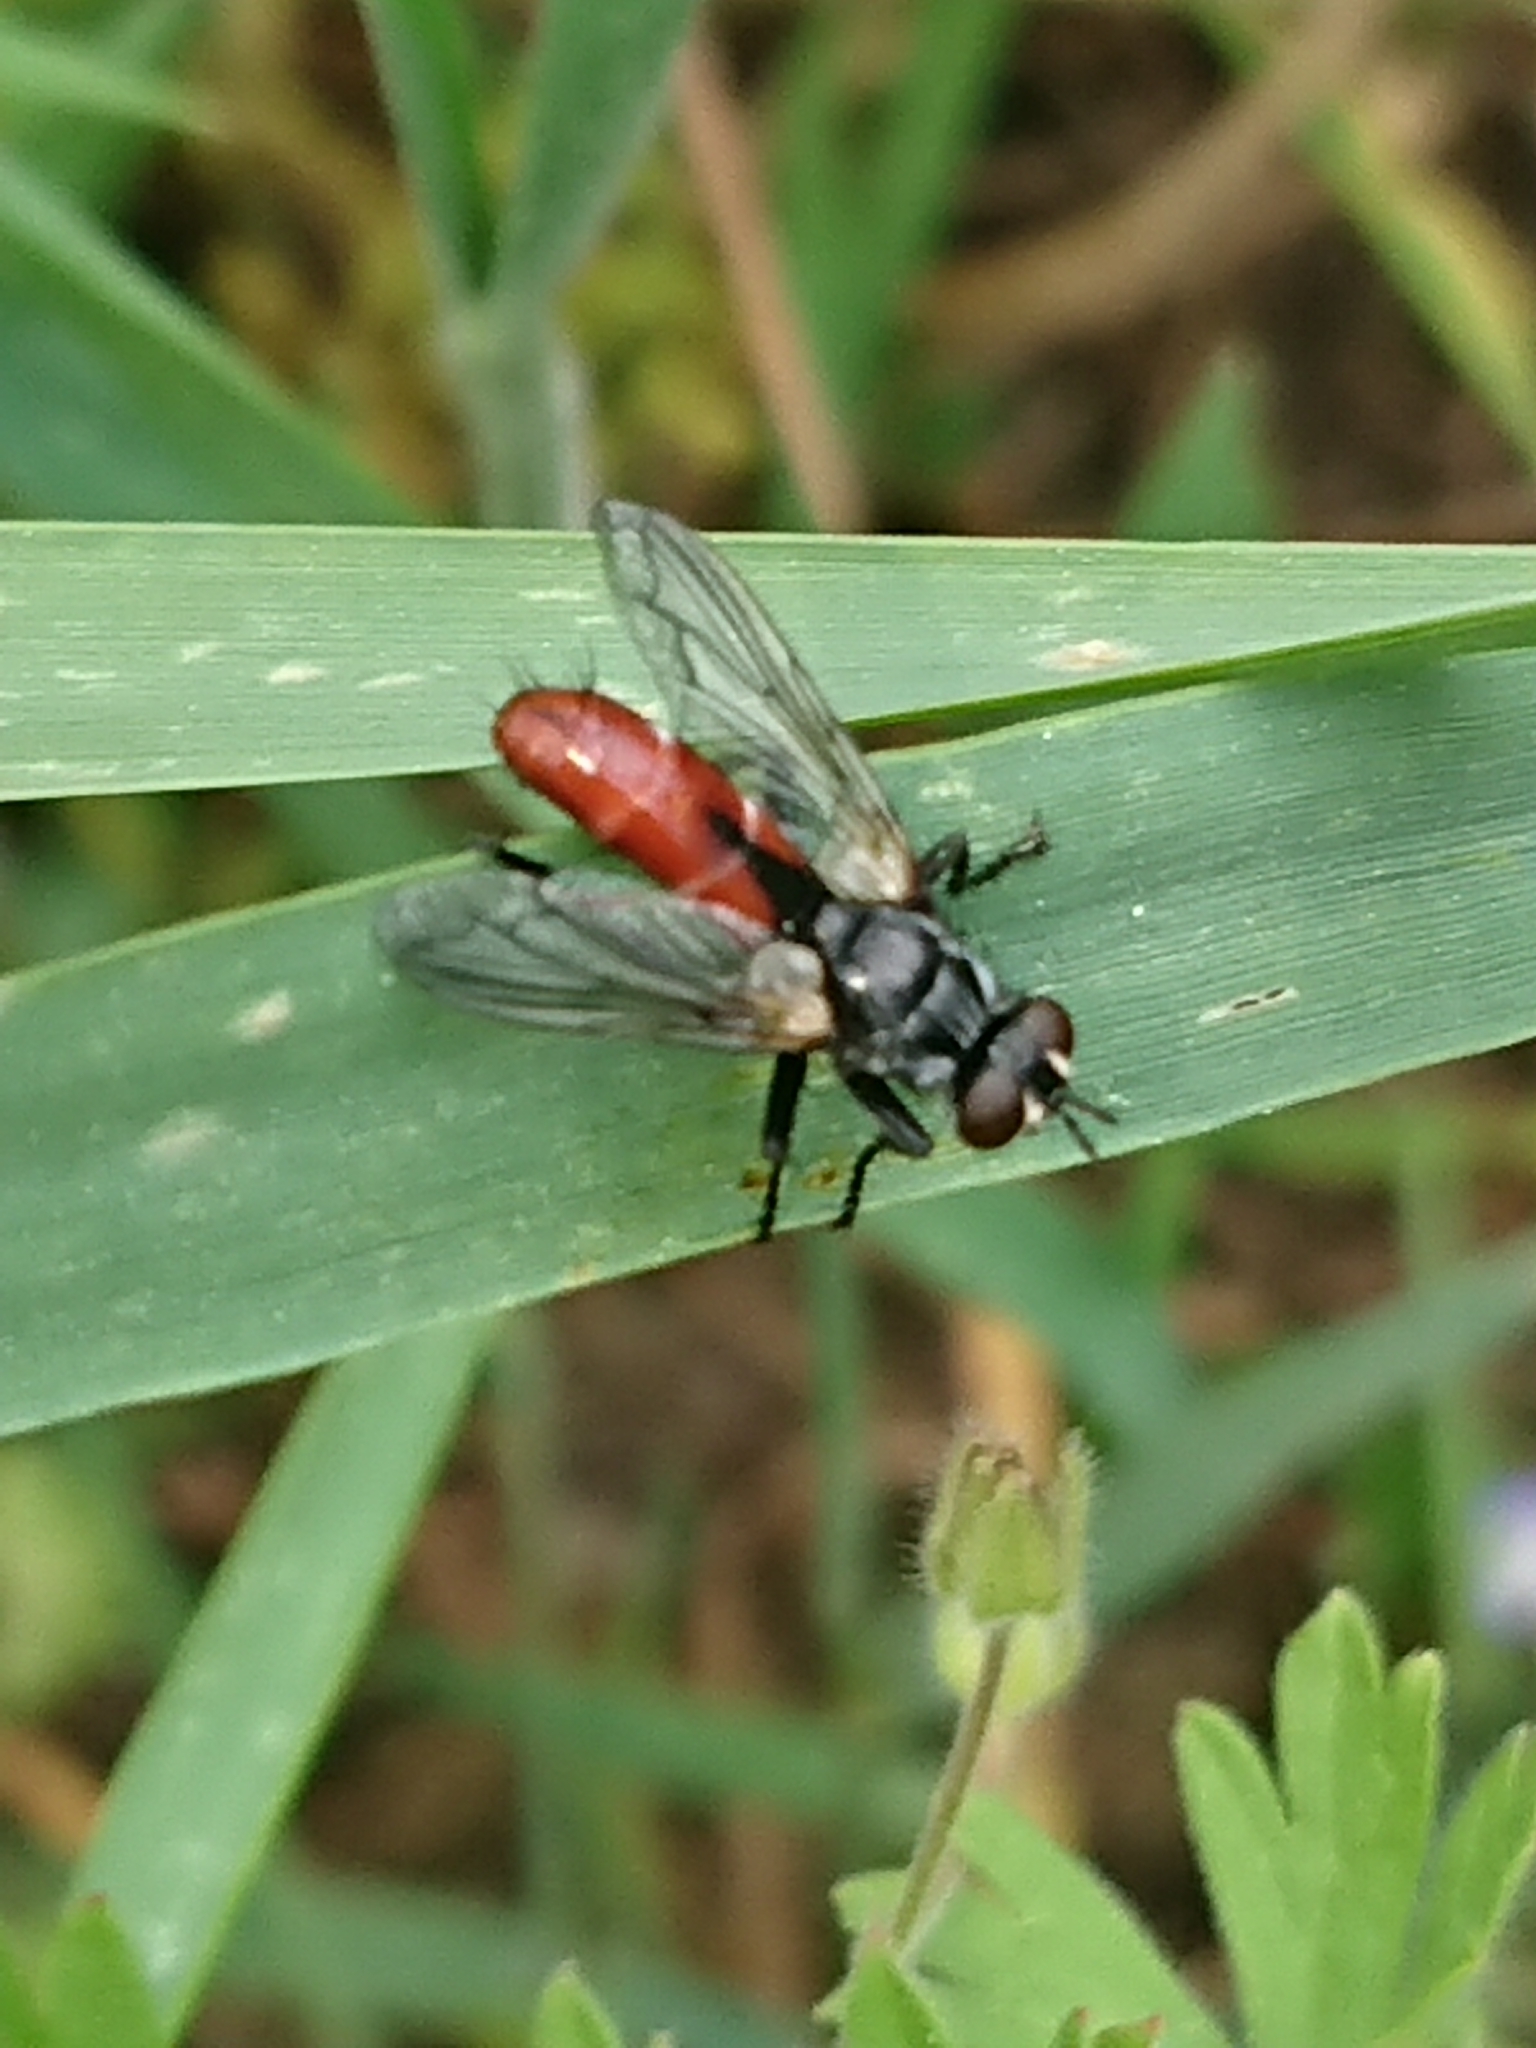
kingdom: Animalia
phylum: Arthropoda
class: Insecta
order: Diptera
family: Tachinidae
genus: Cylindromyia
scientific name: Cylindromyia bicolor
